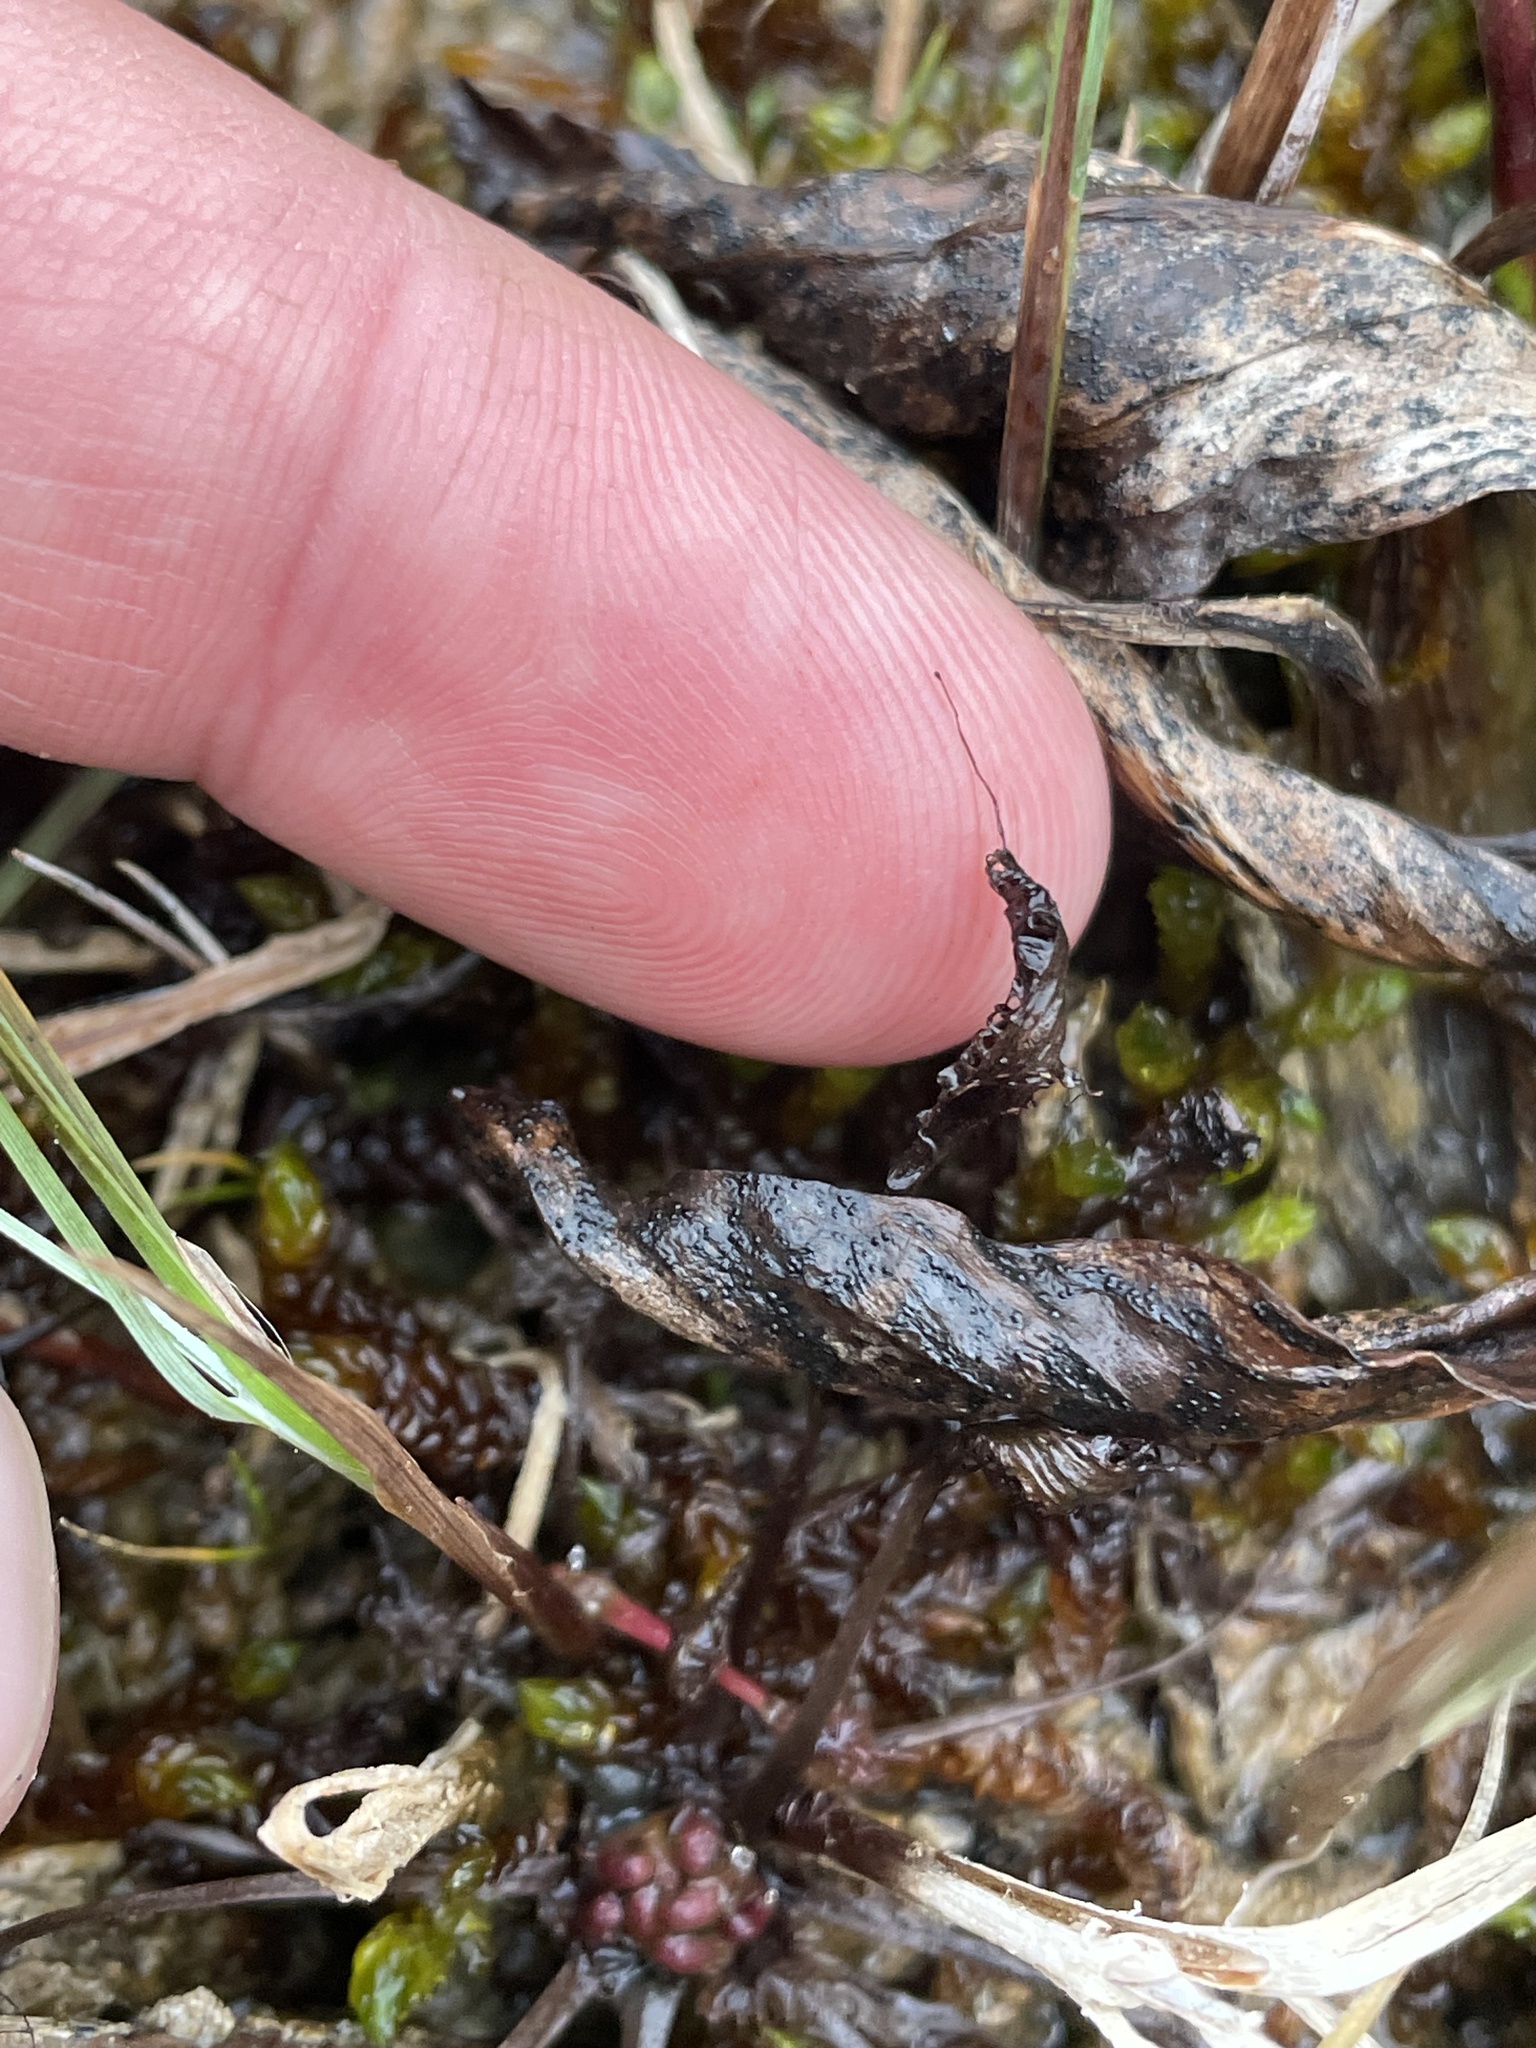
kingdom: Plantae
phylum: Tracheophyta
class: Magnoliopsida
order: Caryophyllales
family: Droseraceae
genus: Drosera
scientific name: Drosera linearis
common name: Linear-leaved sundew
